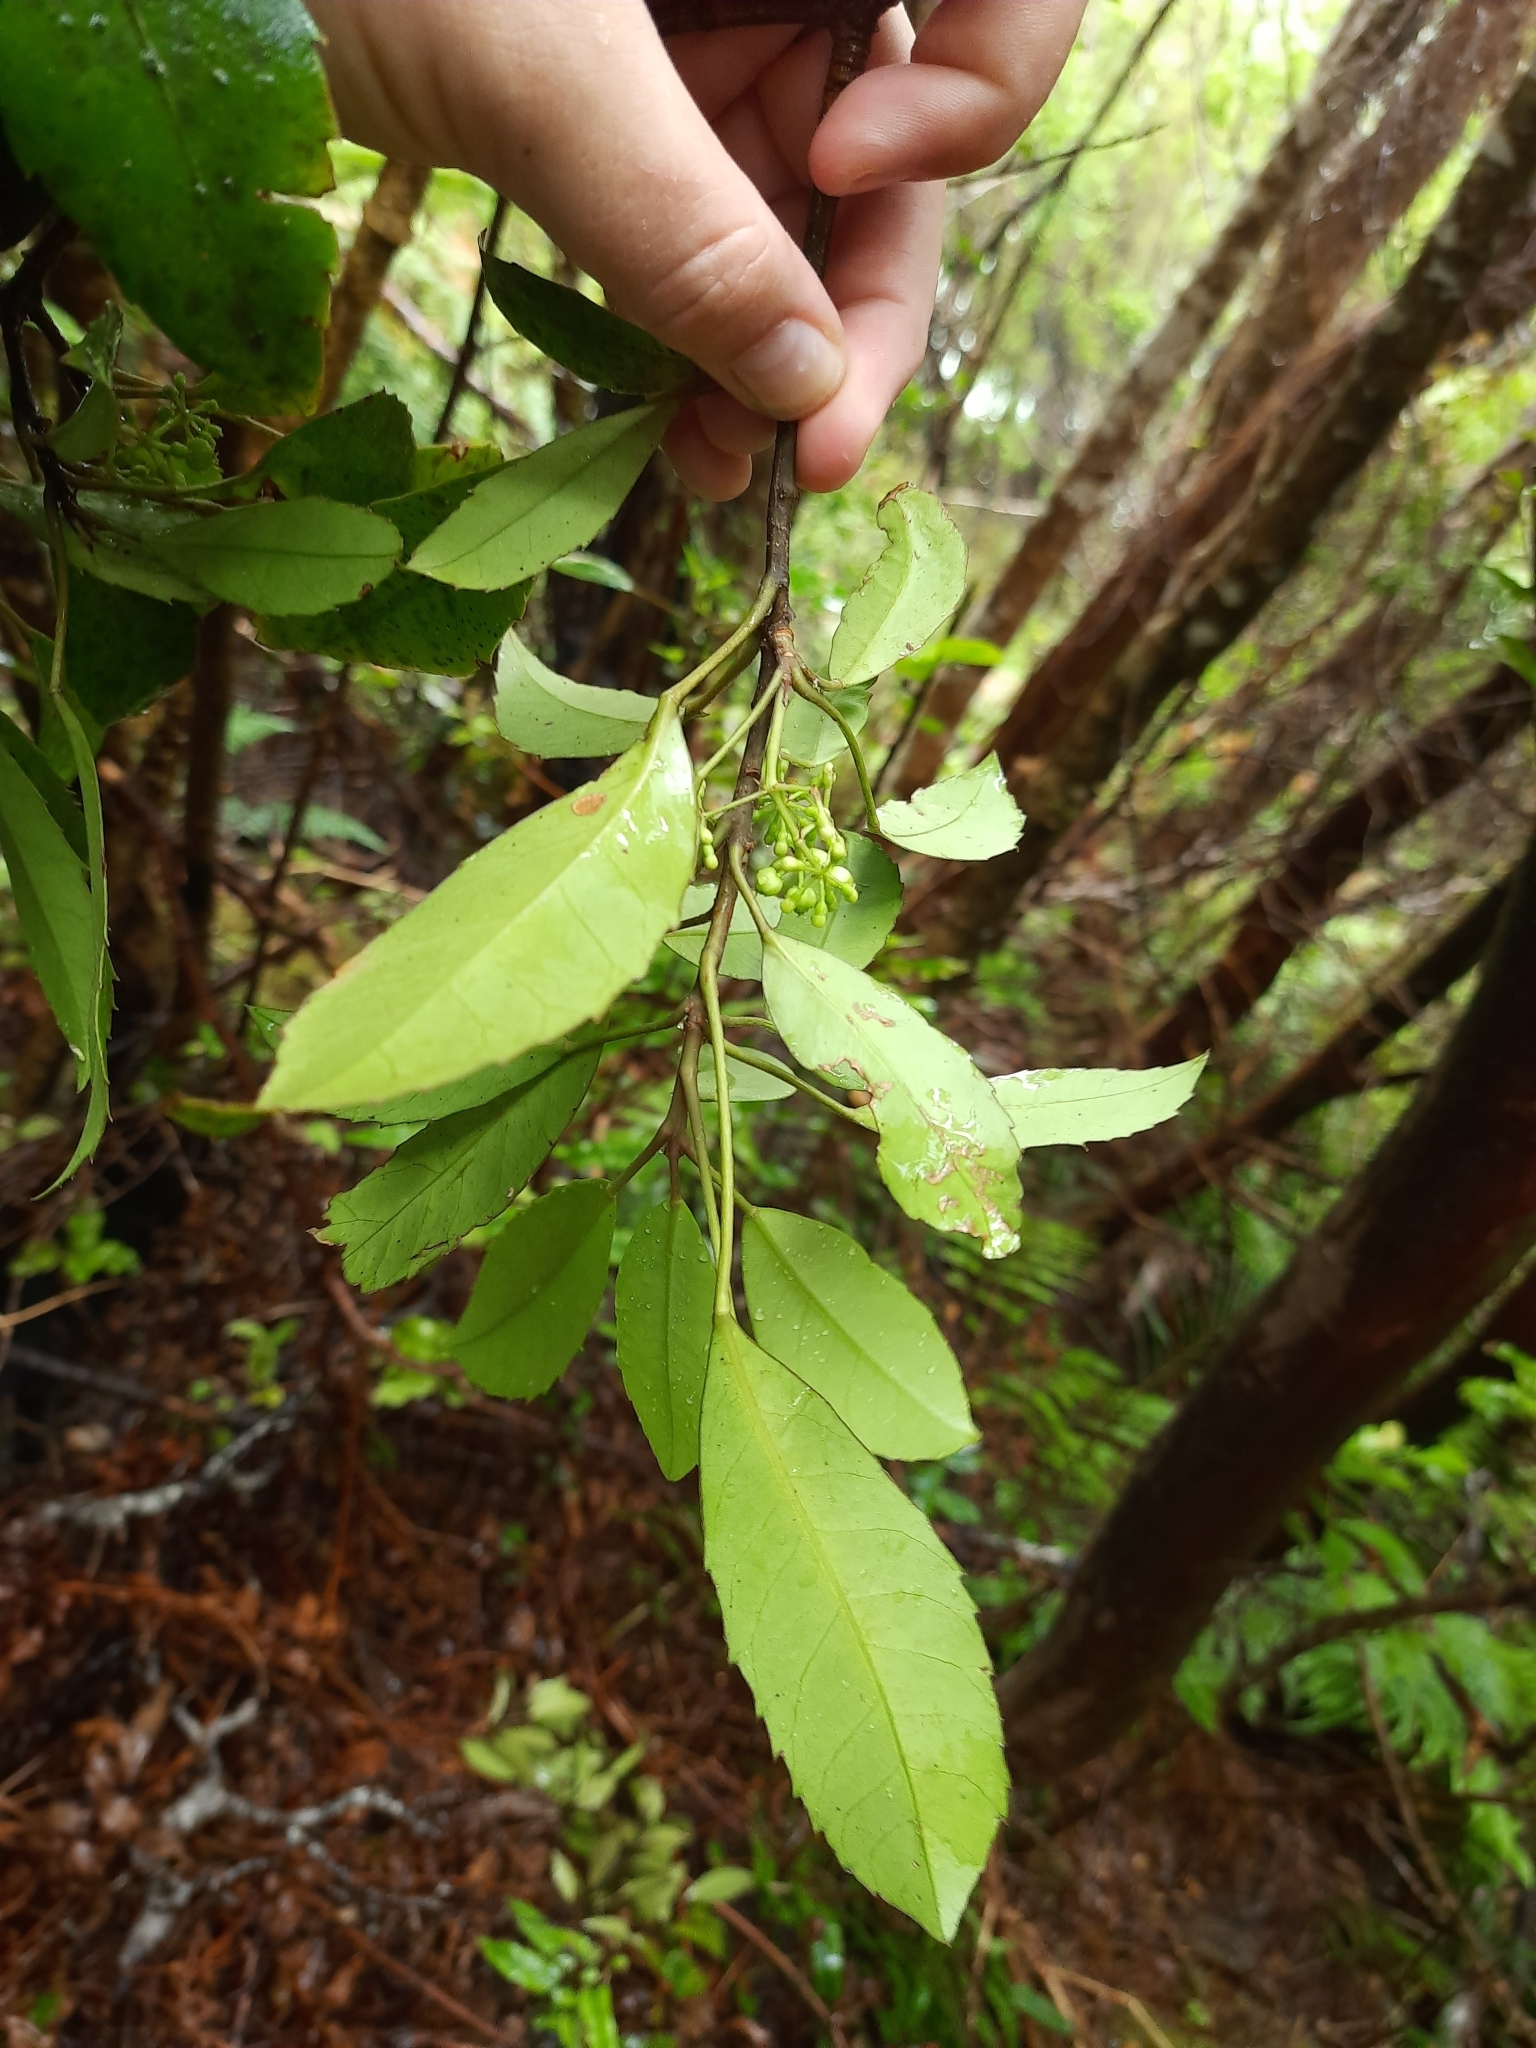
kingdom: Plantae
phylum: Tracheophyta
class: Magnoliopsida
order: Apiales
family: Araliaceae
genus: Raukaua
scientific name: Raukaua simplex
